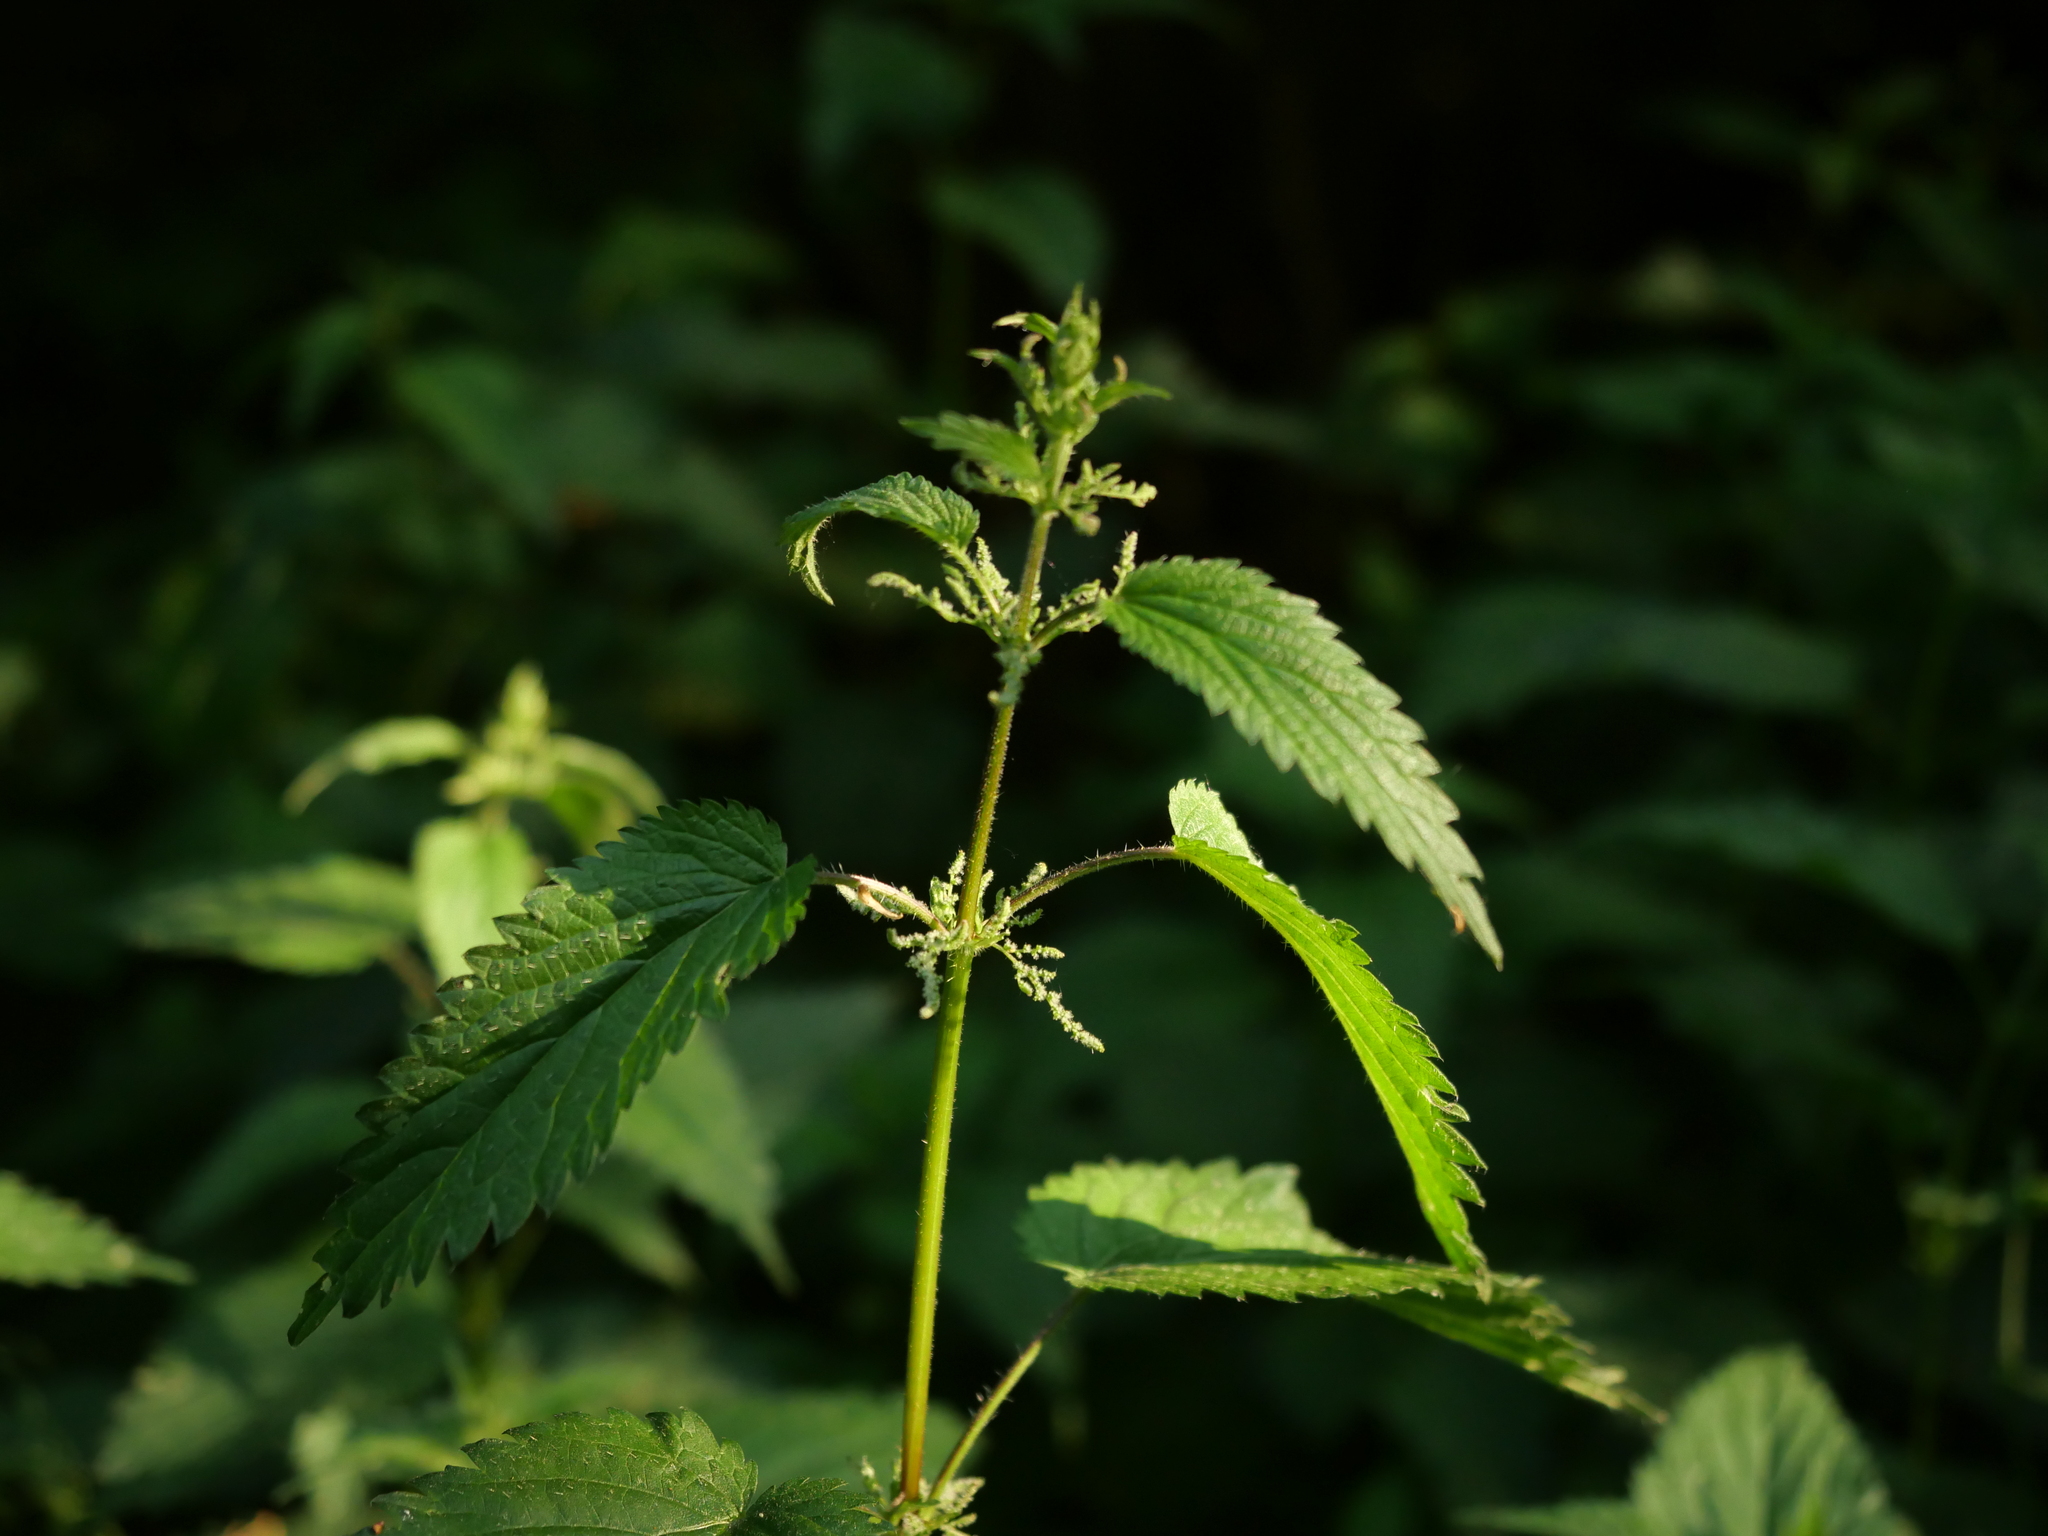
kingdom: Plantae
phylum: Tracheophyta
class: Magnoliopsida
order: Rosales
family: Urticaceae
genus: Urtica
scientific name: Urtica dioica
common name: Common nettle
